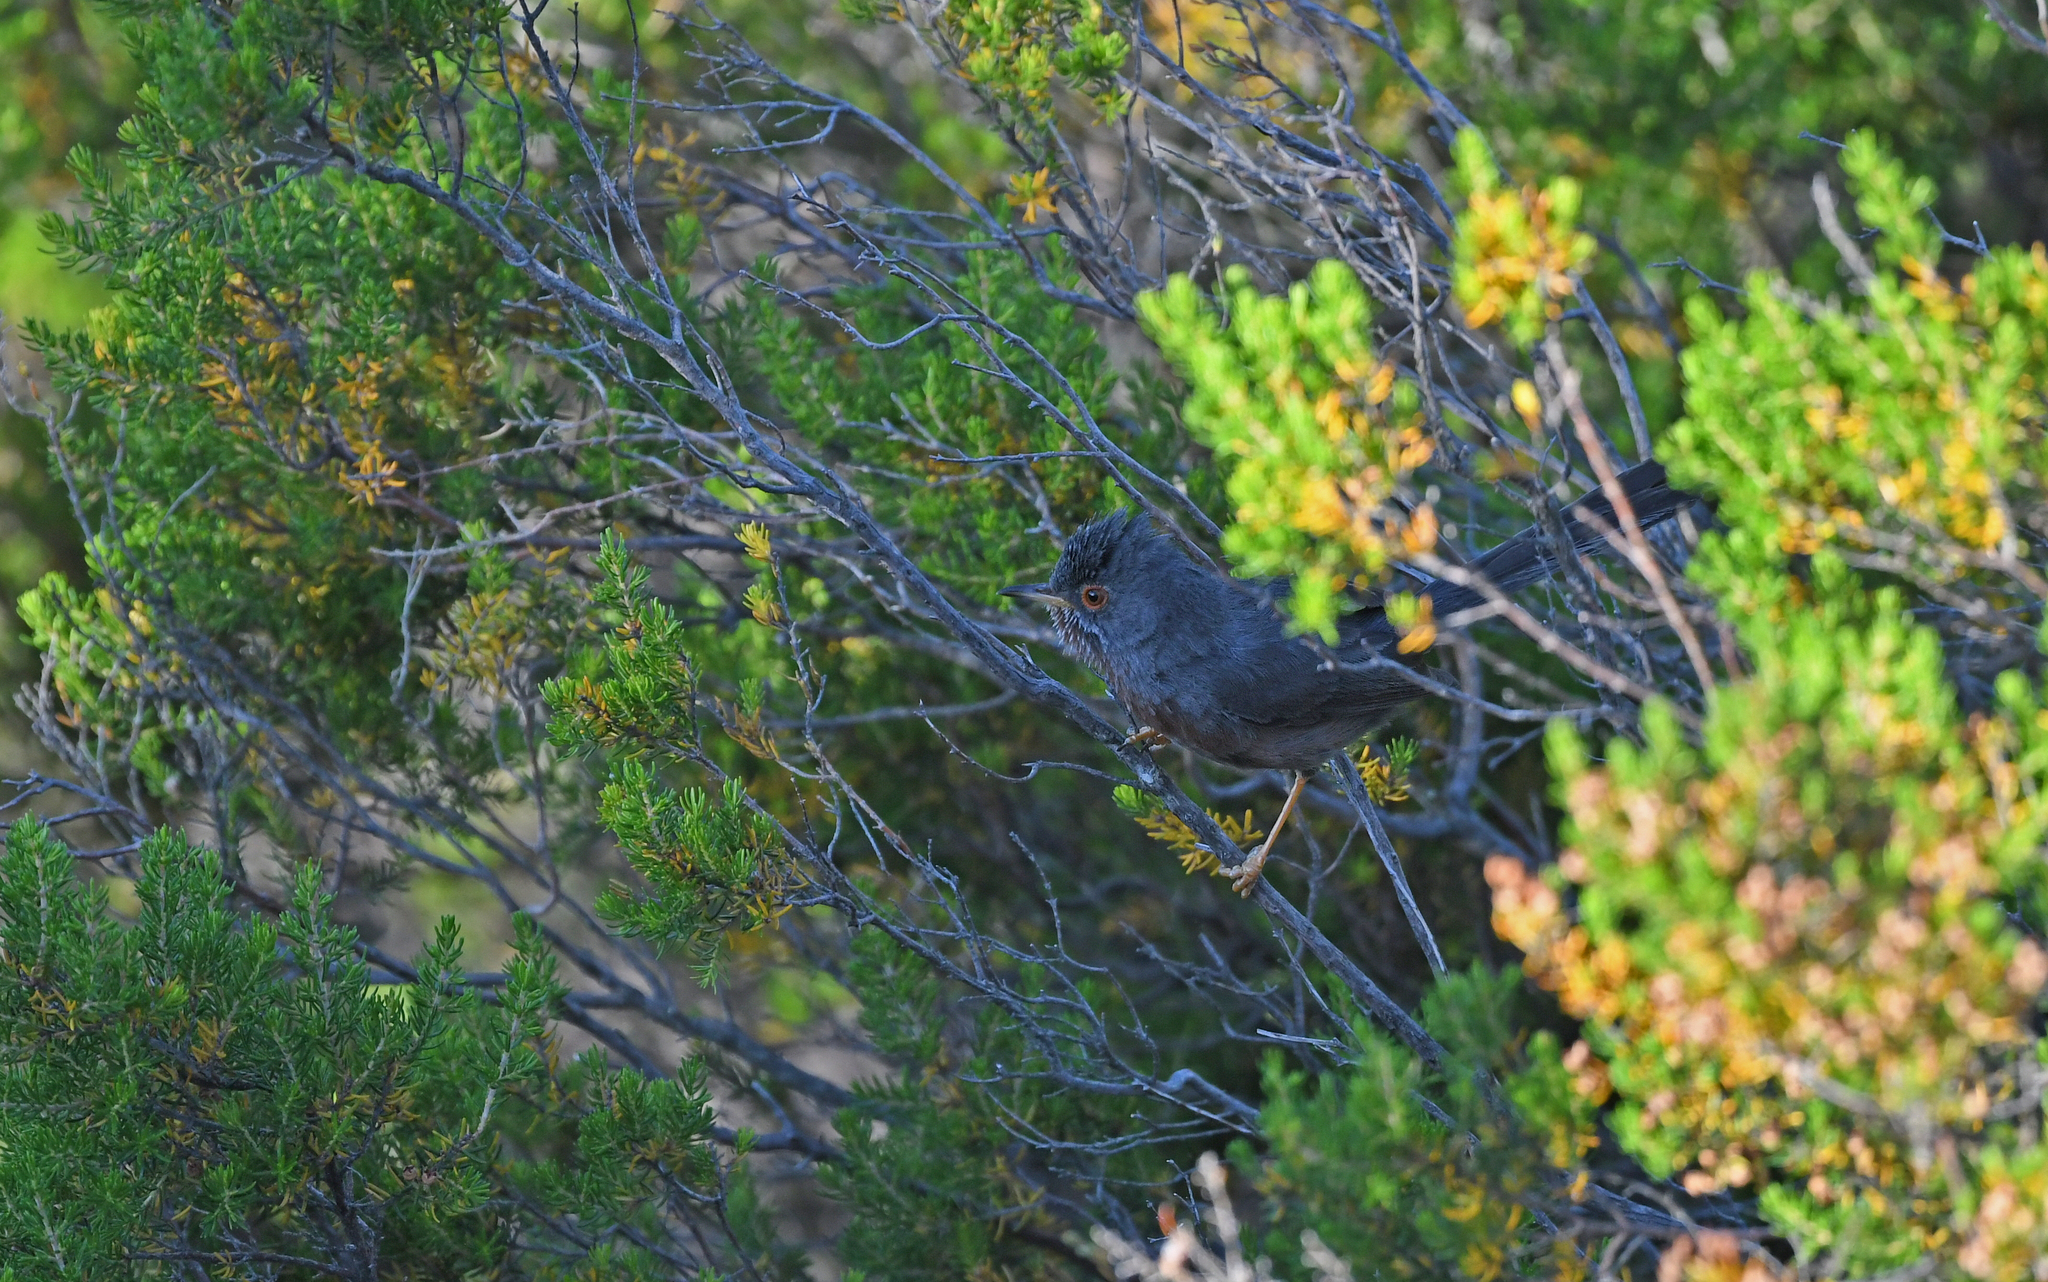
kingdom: Animalia
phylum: Chordata
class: Aves
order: Passeriformes
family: Sylviidae
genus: Sylvia
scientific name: Sylvia undata
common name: Dartford warbler
